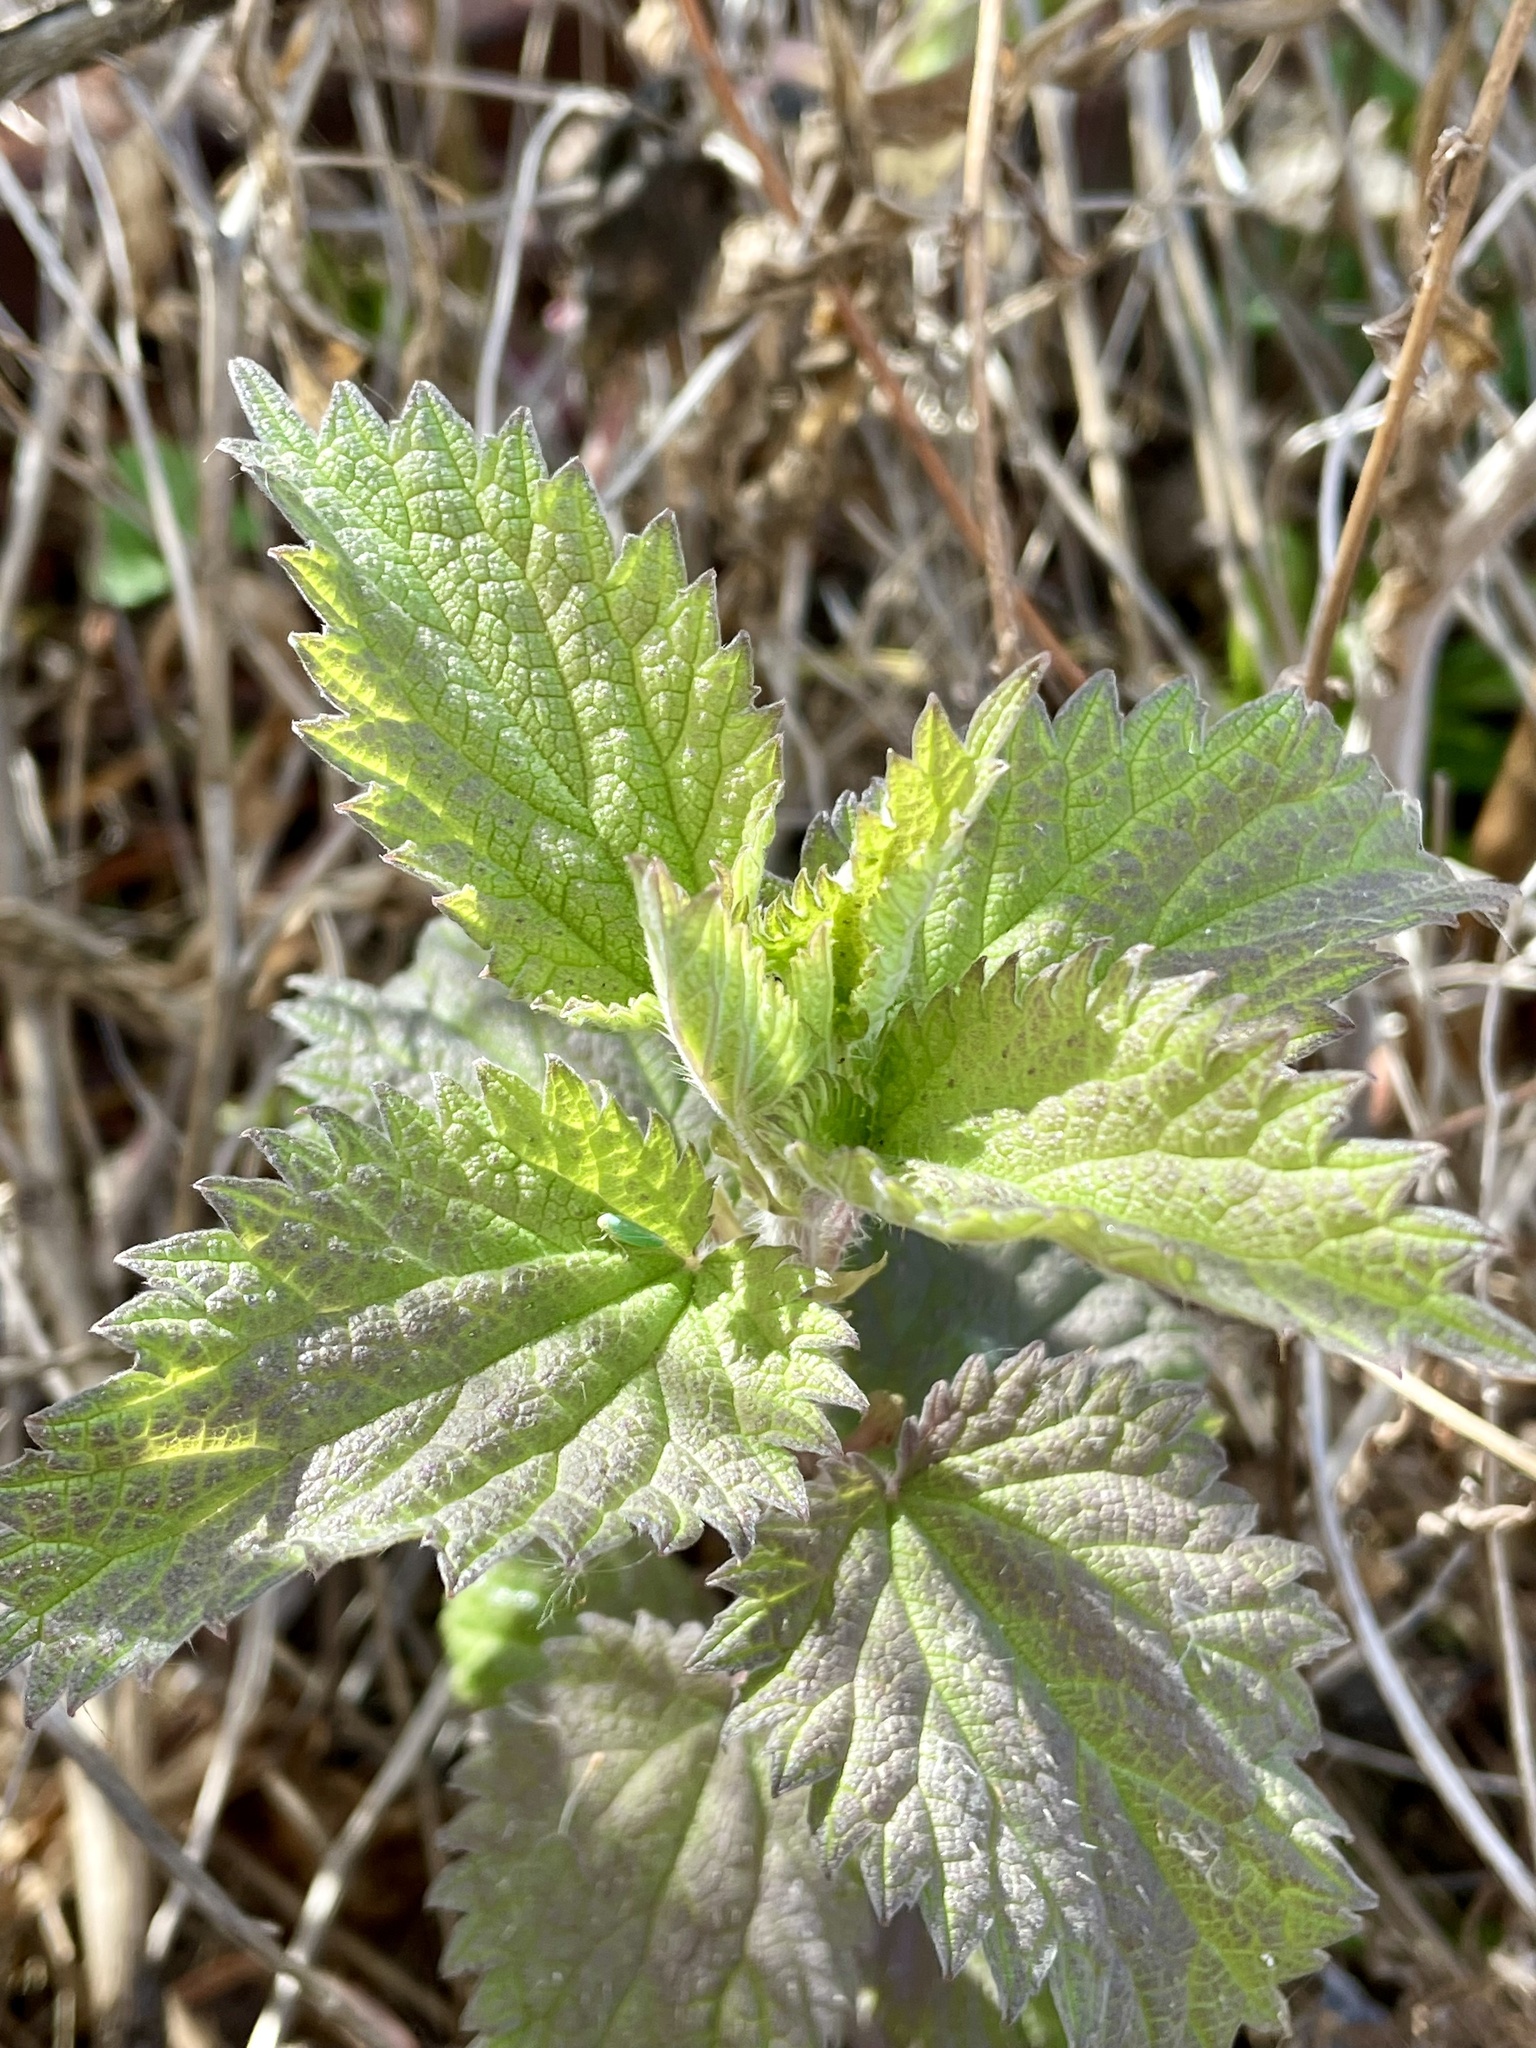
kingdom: Plantae
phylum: Tracheophyta
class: Magnoliopsida
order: Rosales
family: Urticaceae
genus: Urtica
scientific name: Urtica gracilis
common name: Slender stinging nettle
